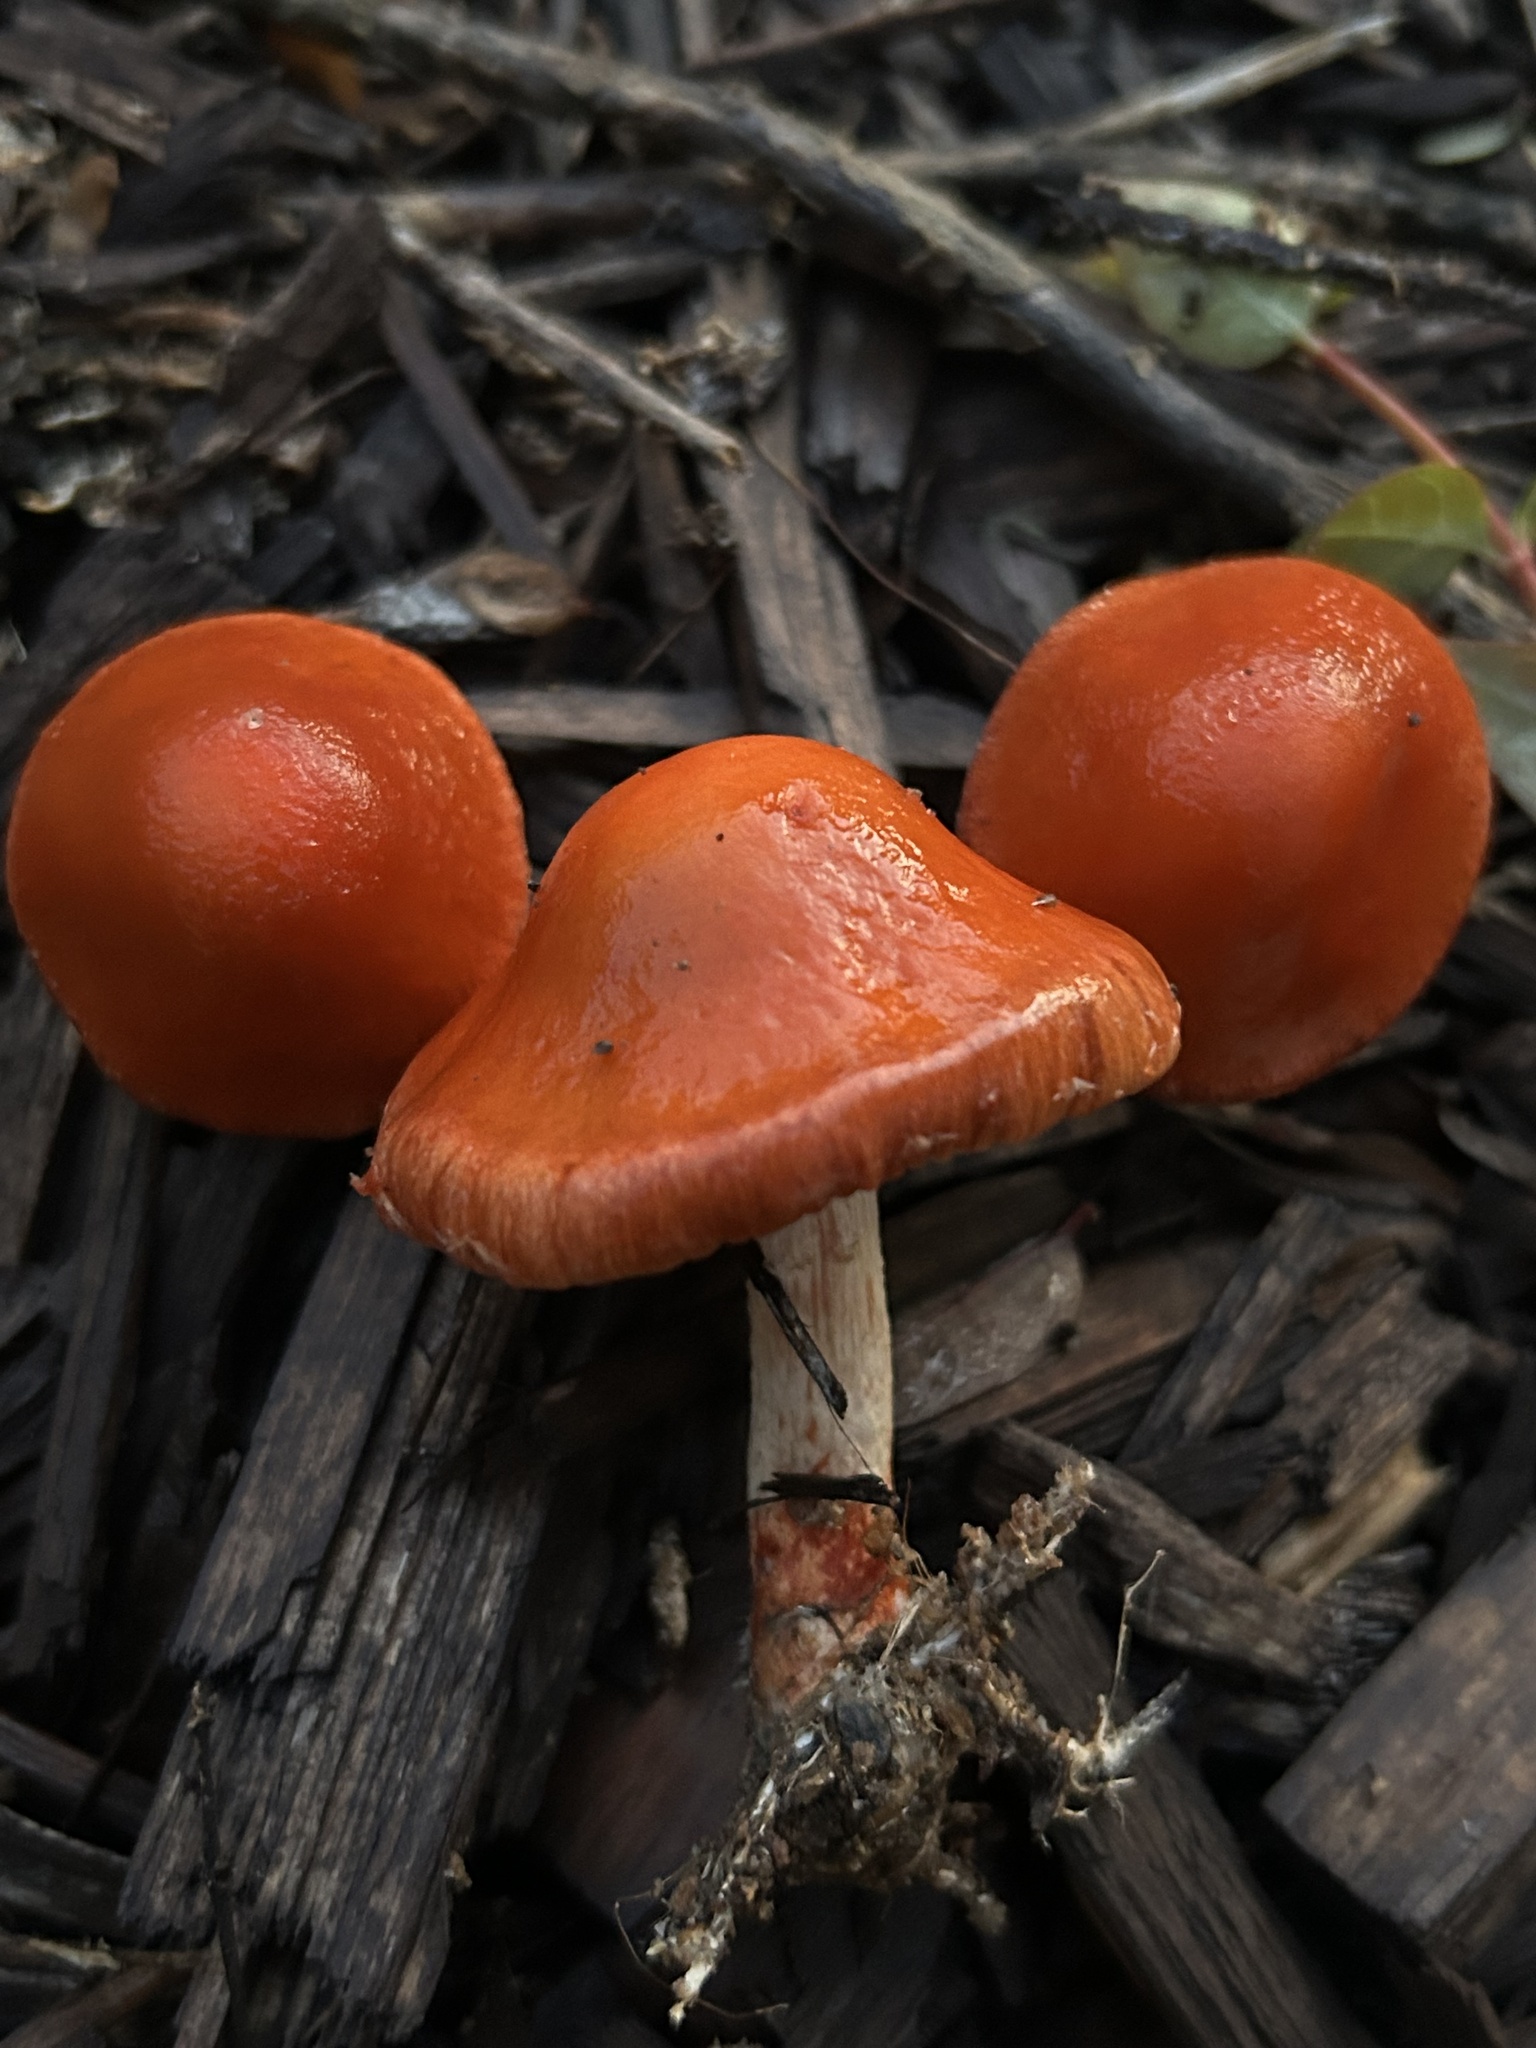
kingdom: Fungi
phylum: Basidiomycota
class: Agaricomycetes
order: Agaricales
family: Strophariaceae
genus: Leratiomyces
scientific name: Leratiomyces ceres
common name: Redlead roundhead
